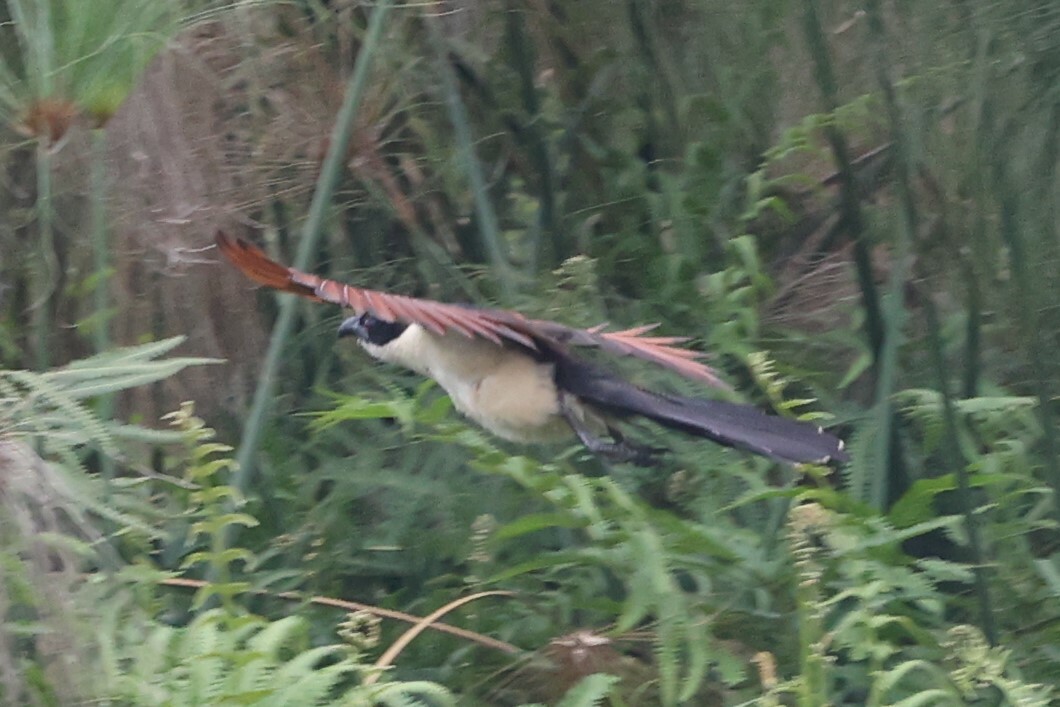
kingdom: Animalia
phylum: Chordata
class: Aves
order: Cuculiformes
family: Cuculidae
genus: Centropus
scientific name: Centropus monachus
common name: Blue-headed coucal
